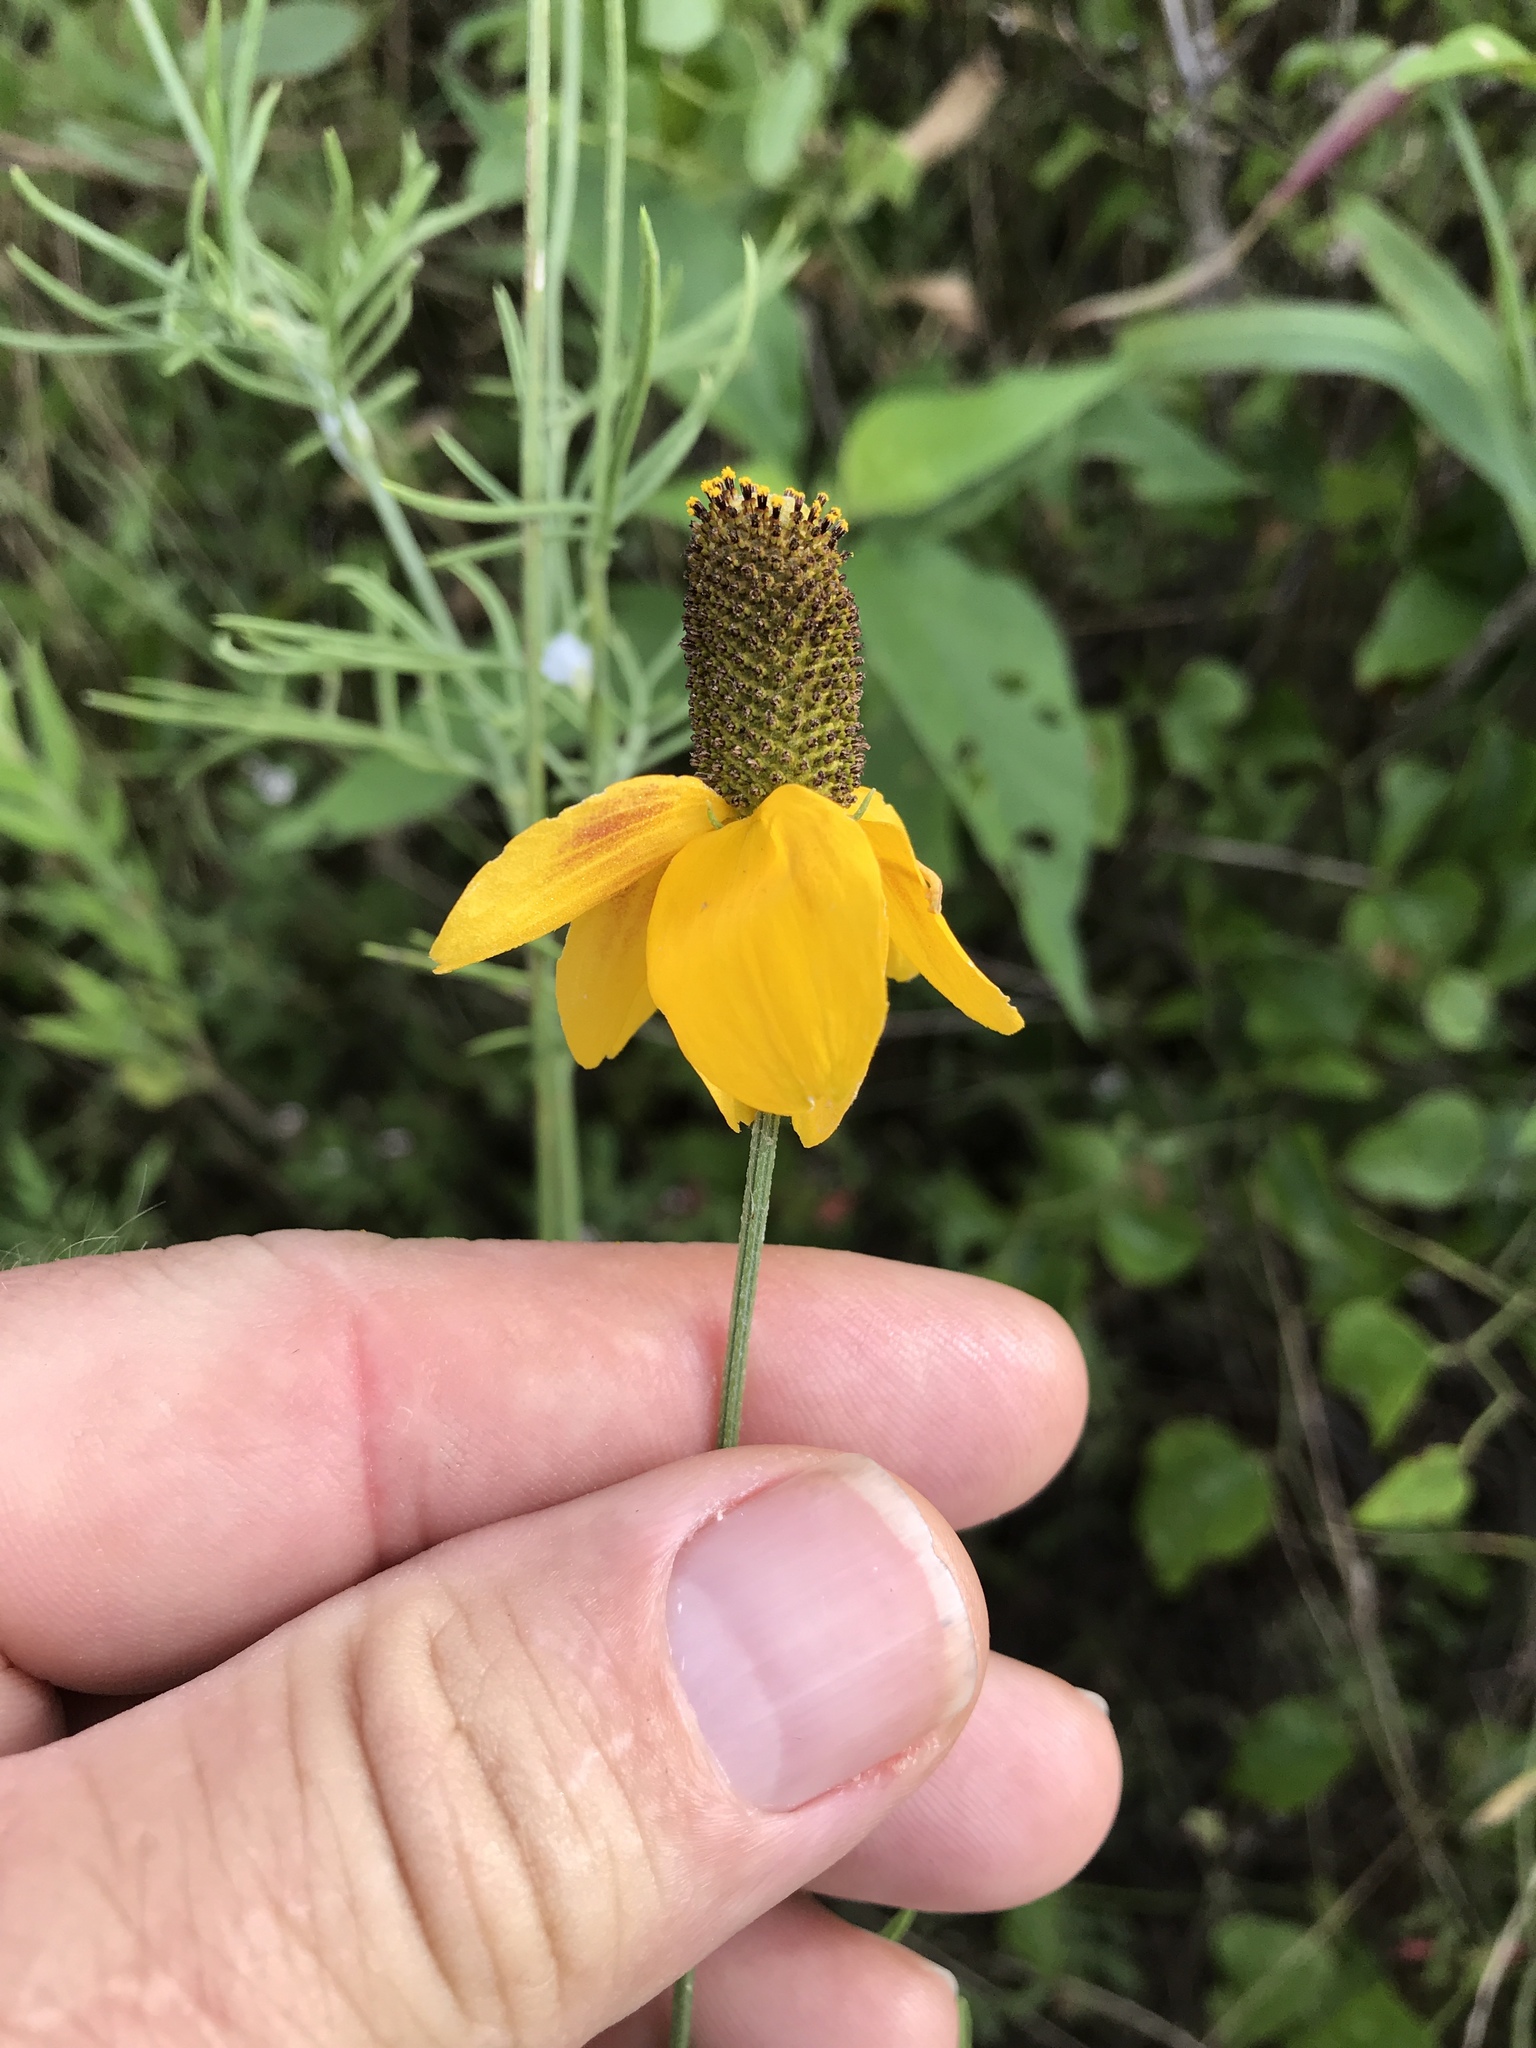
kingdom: Plantae
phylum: Tracheophyta
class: Magnoliopsida
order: Asterales
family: Asteraceae
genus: Ratibida
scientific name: Ratibida columnifera
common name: Prairie coneflower
